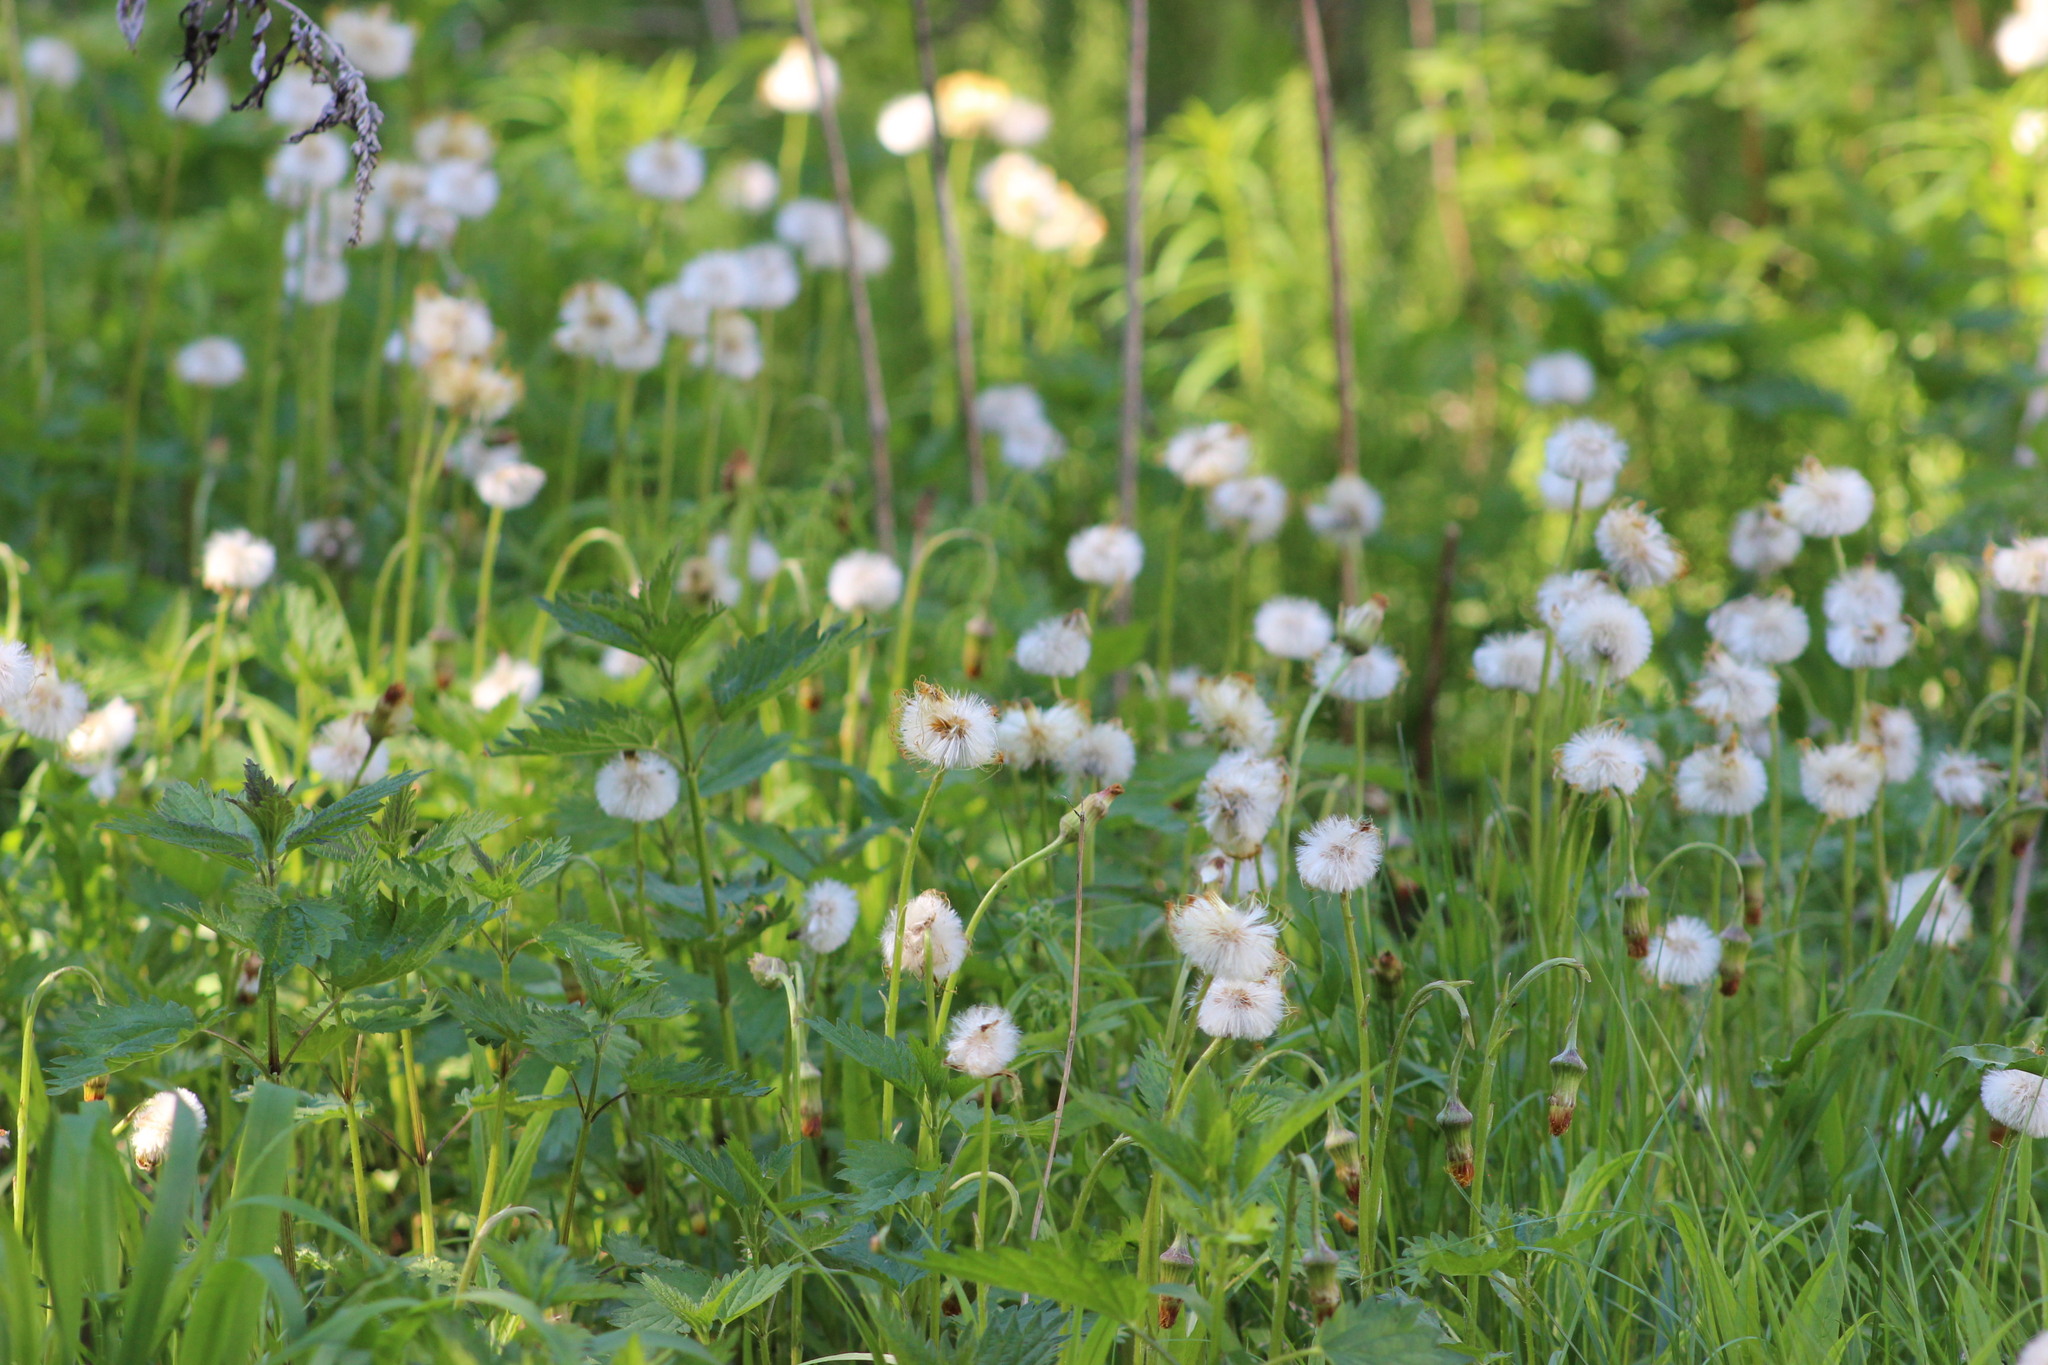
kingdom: Plantae
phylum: Tracheophyta
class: Magnoliopsida
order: Asterales
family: Asteraceae
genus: Tussilago
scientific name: Tussilago farfara
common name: Coltsfoot
